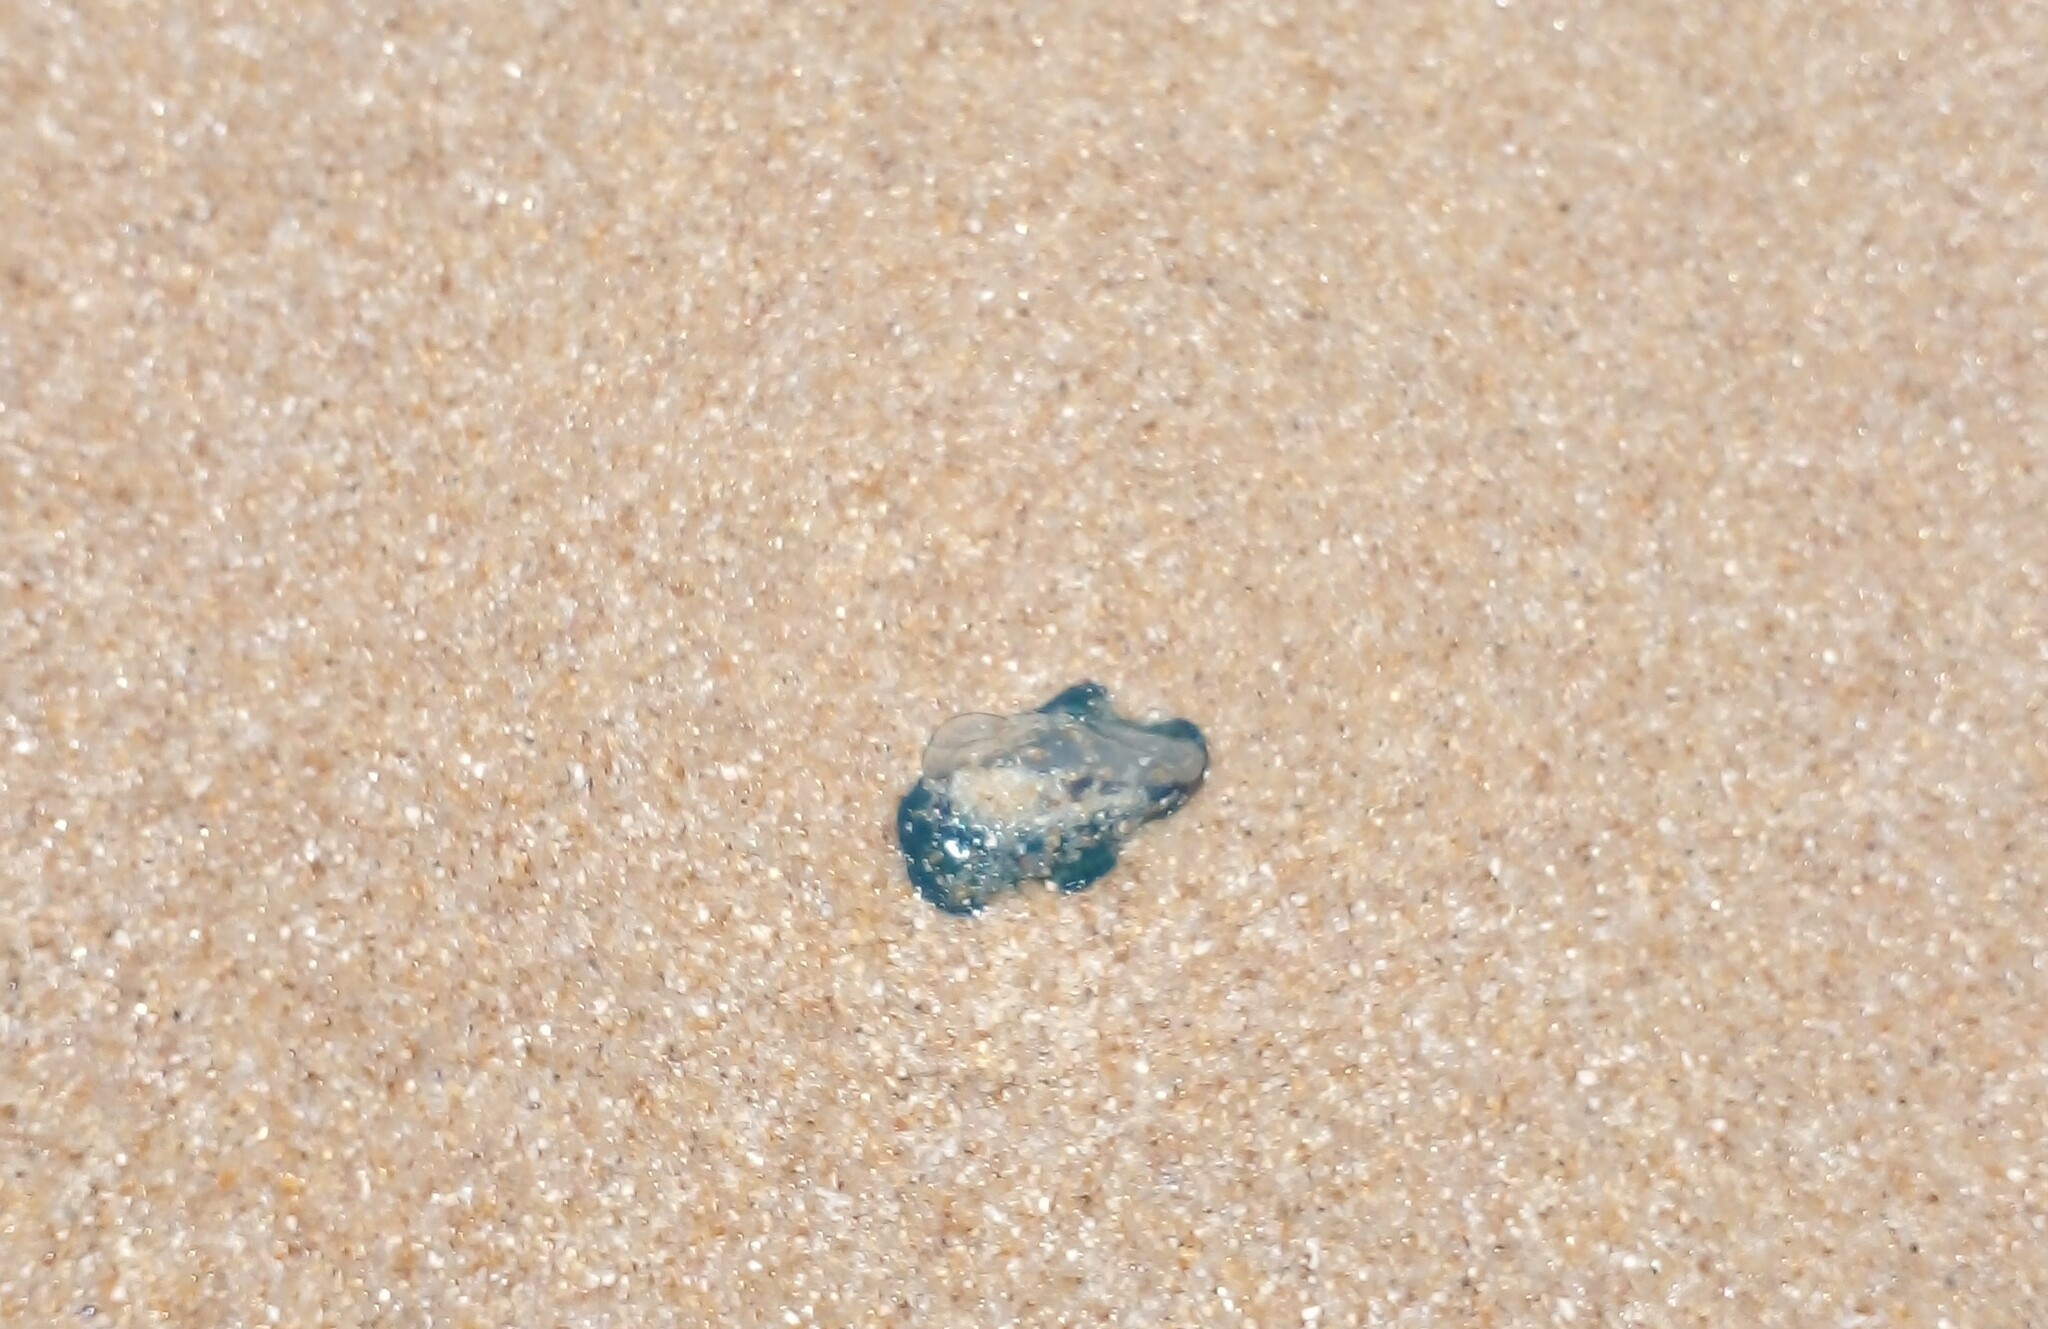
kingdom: Animalia
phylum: Cnidaria
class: Hydrozoa
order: Siphonophorae
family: Physaliidae
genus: Physalia
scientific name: Physalia physalis
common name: Portuguese man-of-war
